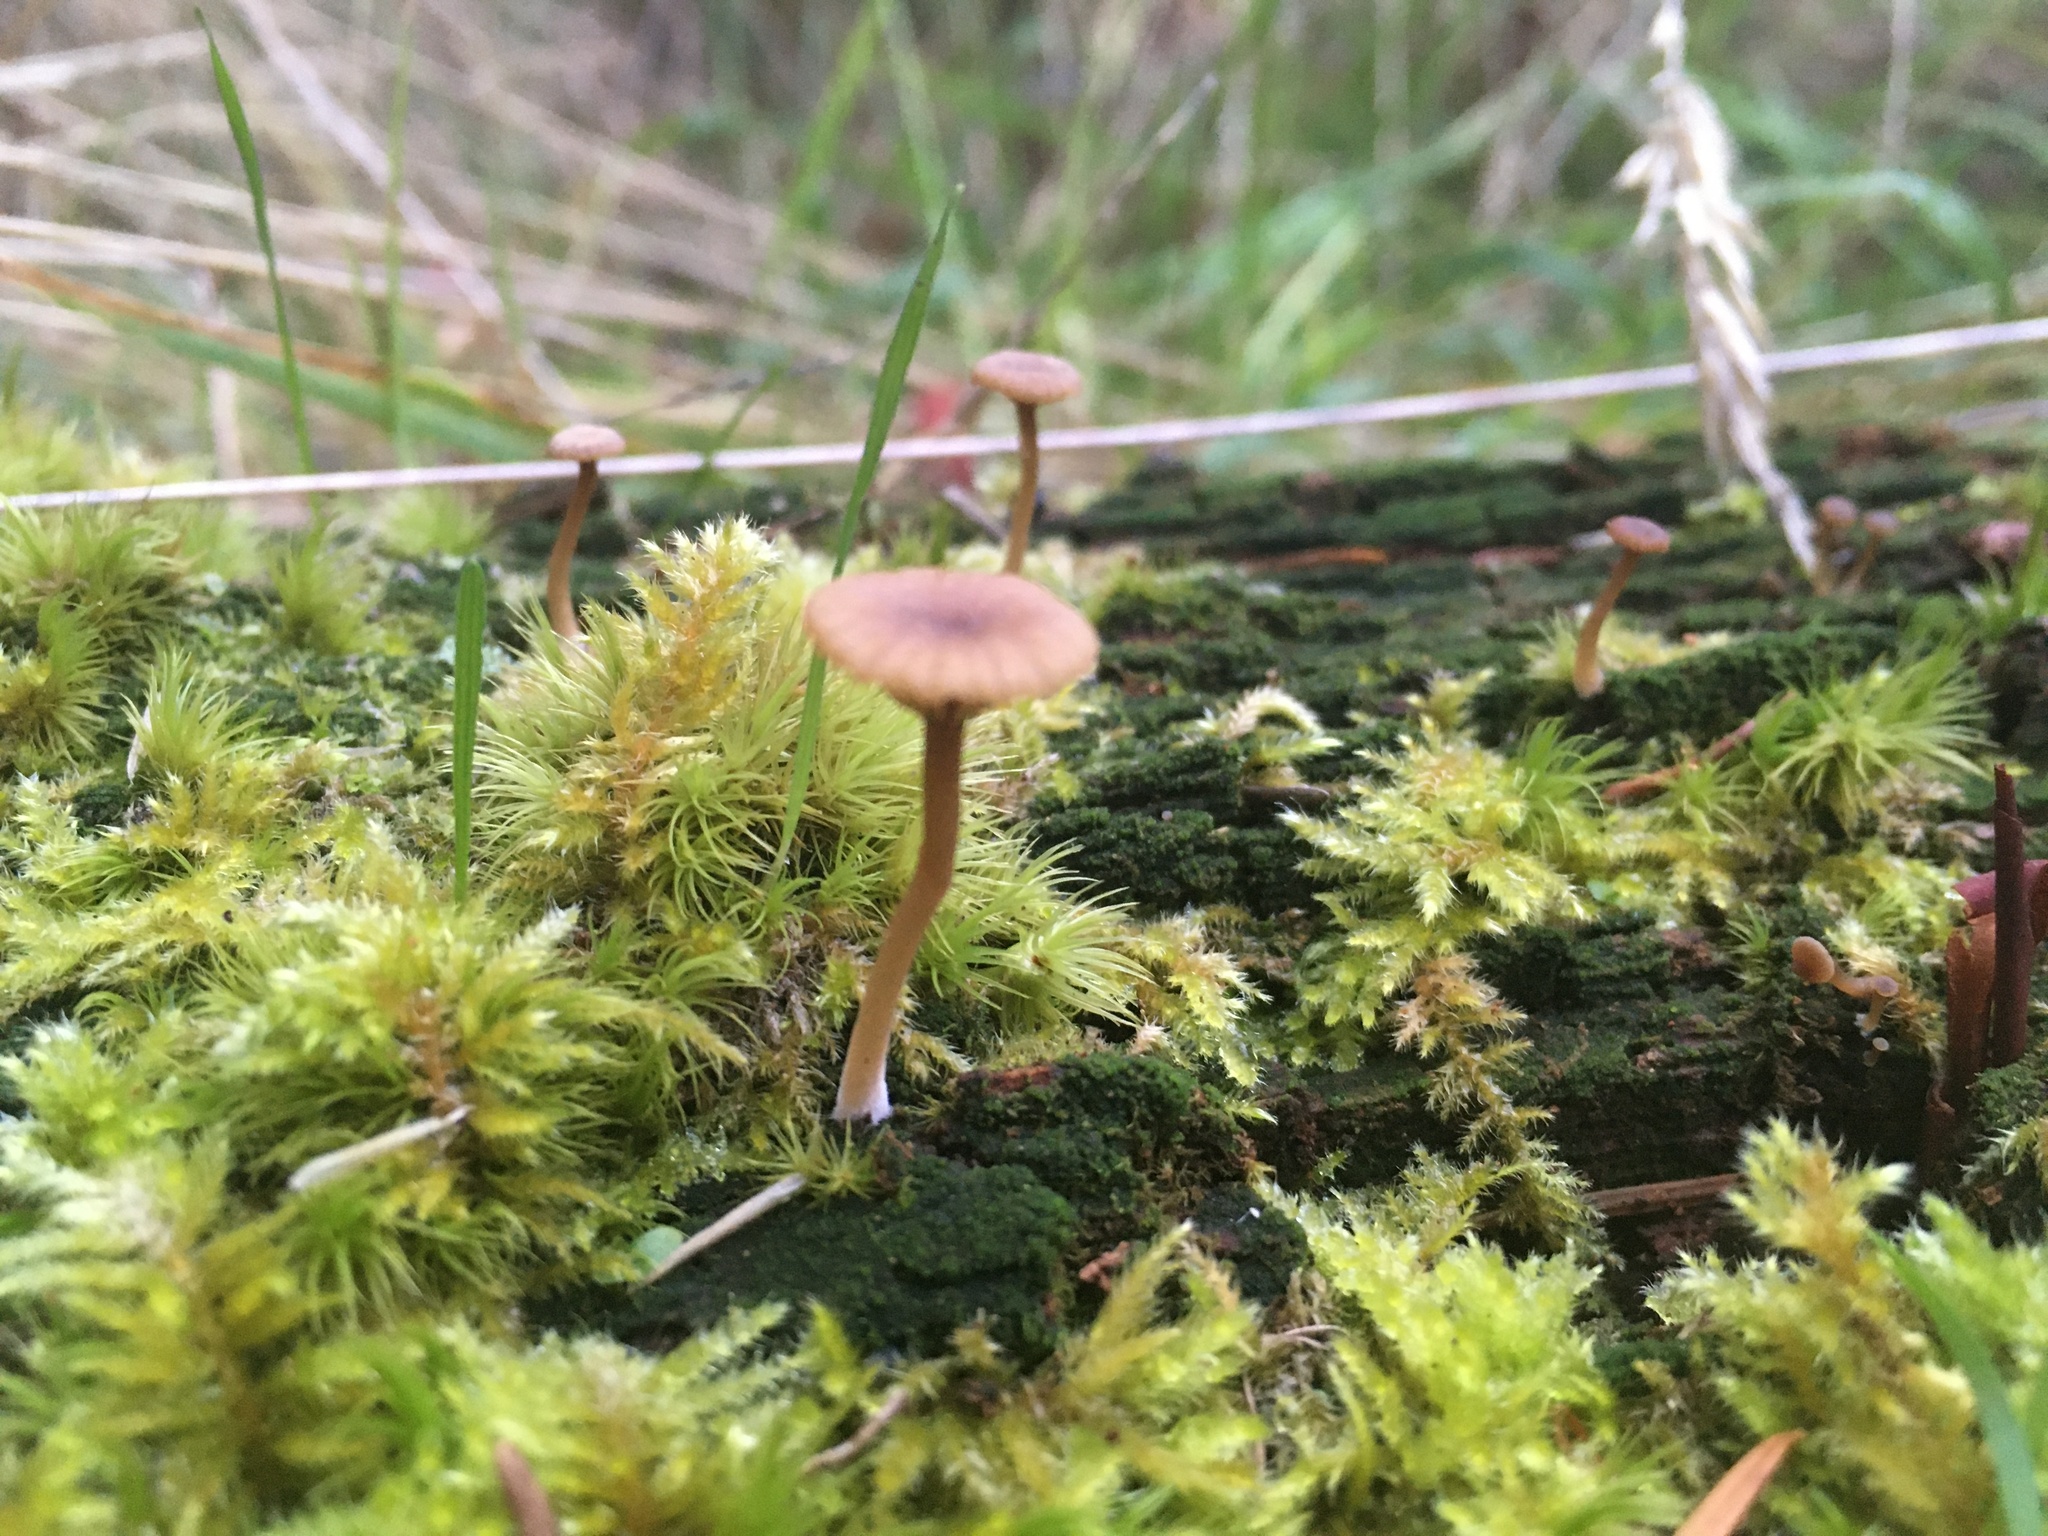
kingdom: Fungi
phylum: Basidiomycota
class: Agaricomycetes
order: Agaricales
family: Hygrophoraceae
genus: Lichenomphalia
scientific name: Lichenomphalia
